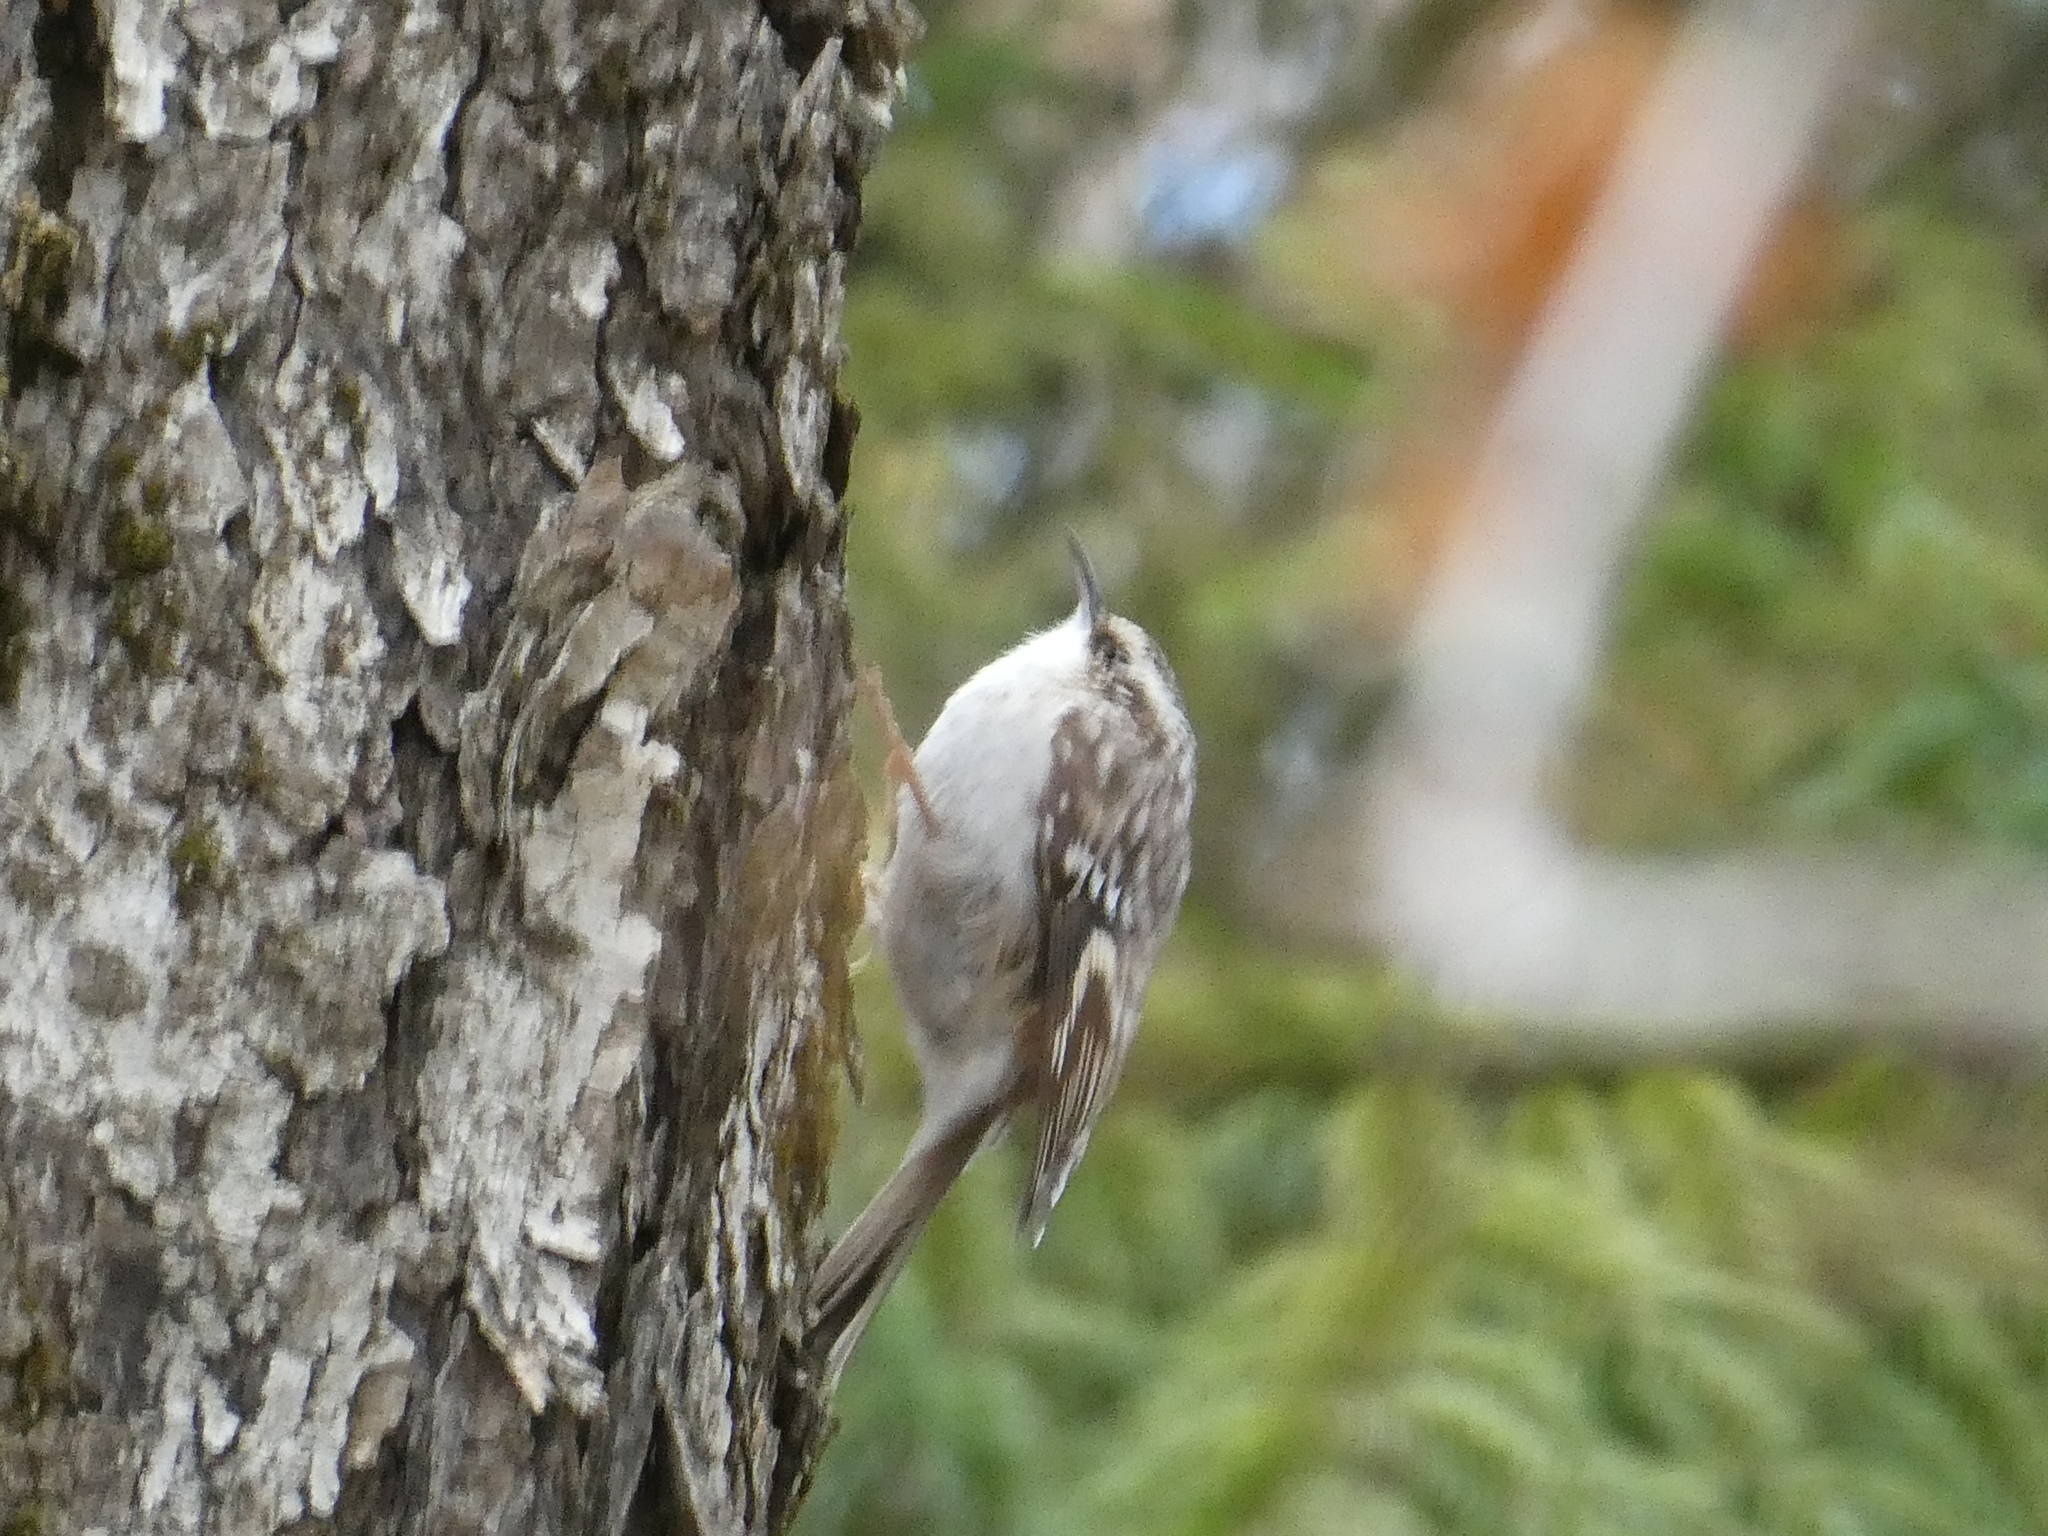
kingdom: Animalia
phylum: Chordata
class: Aves
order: Passeriformes
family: Certhiidae
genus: Certhia
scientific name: Certhia americana
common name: Brown creeper
